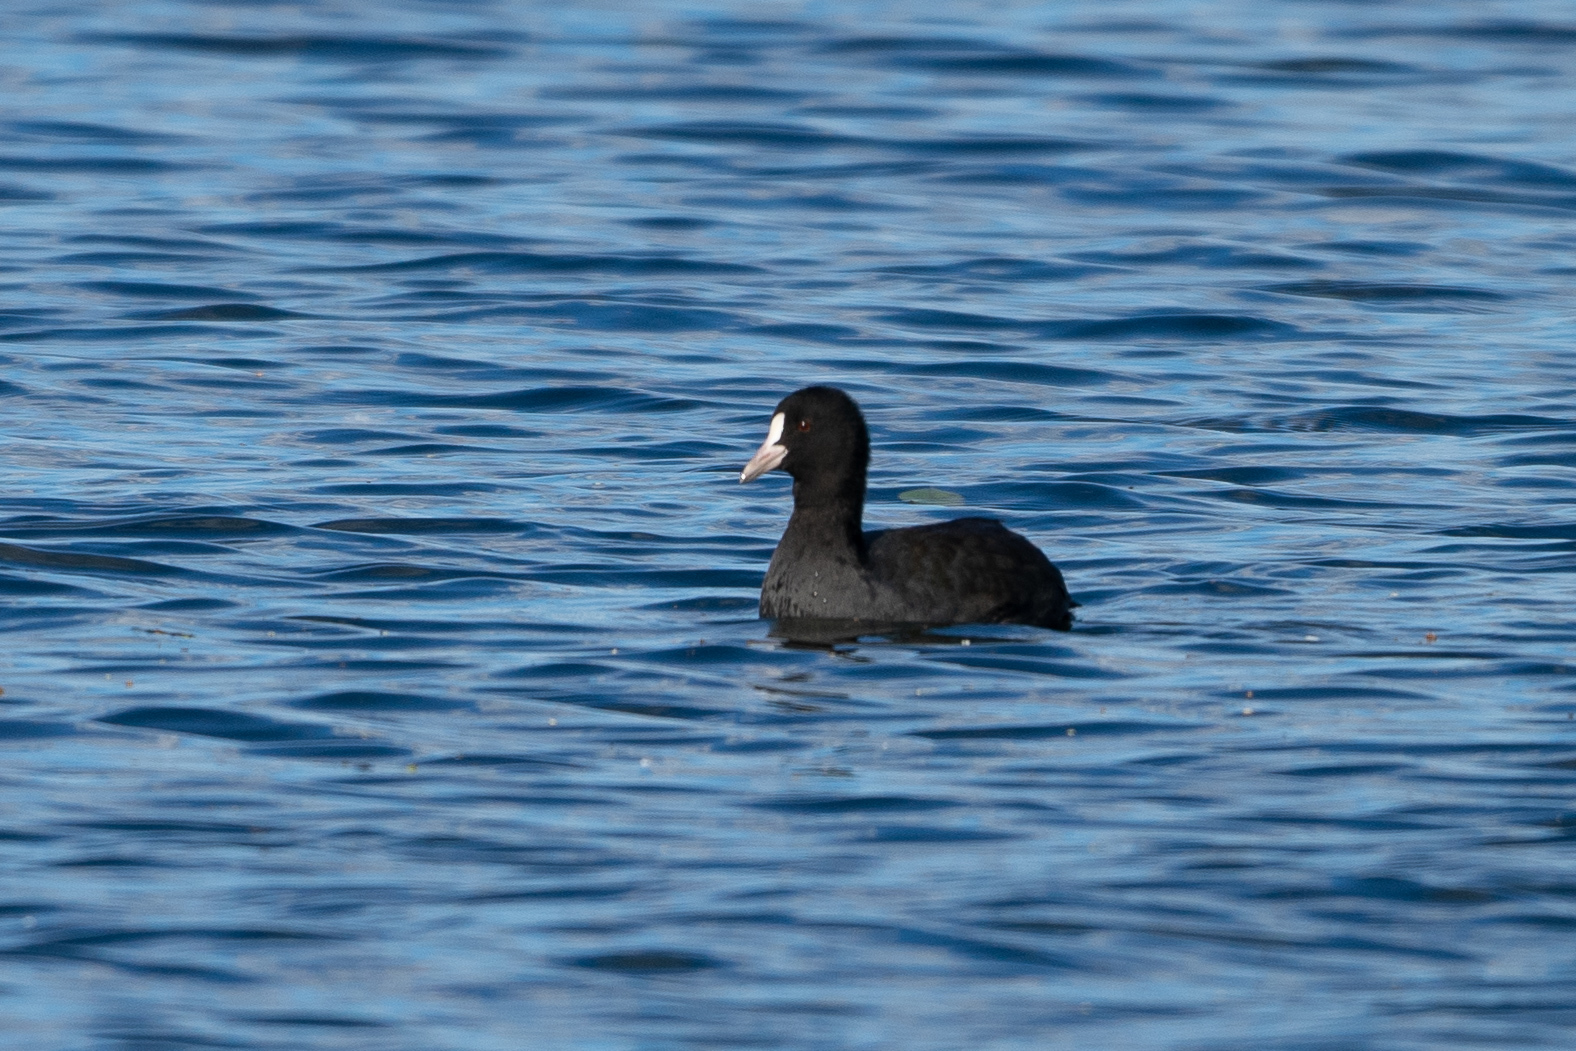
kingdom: Animalia
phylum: Chordata
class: Aves
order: Gruiformes
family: Rallidae
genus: Fulica
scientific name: Fulica atra
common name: Eurasian coot
